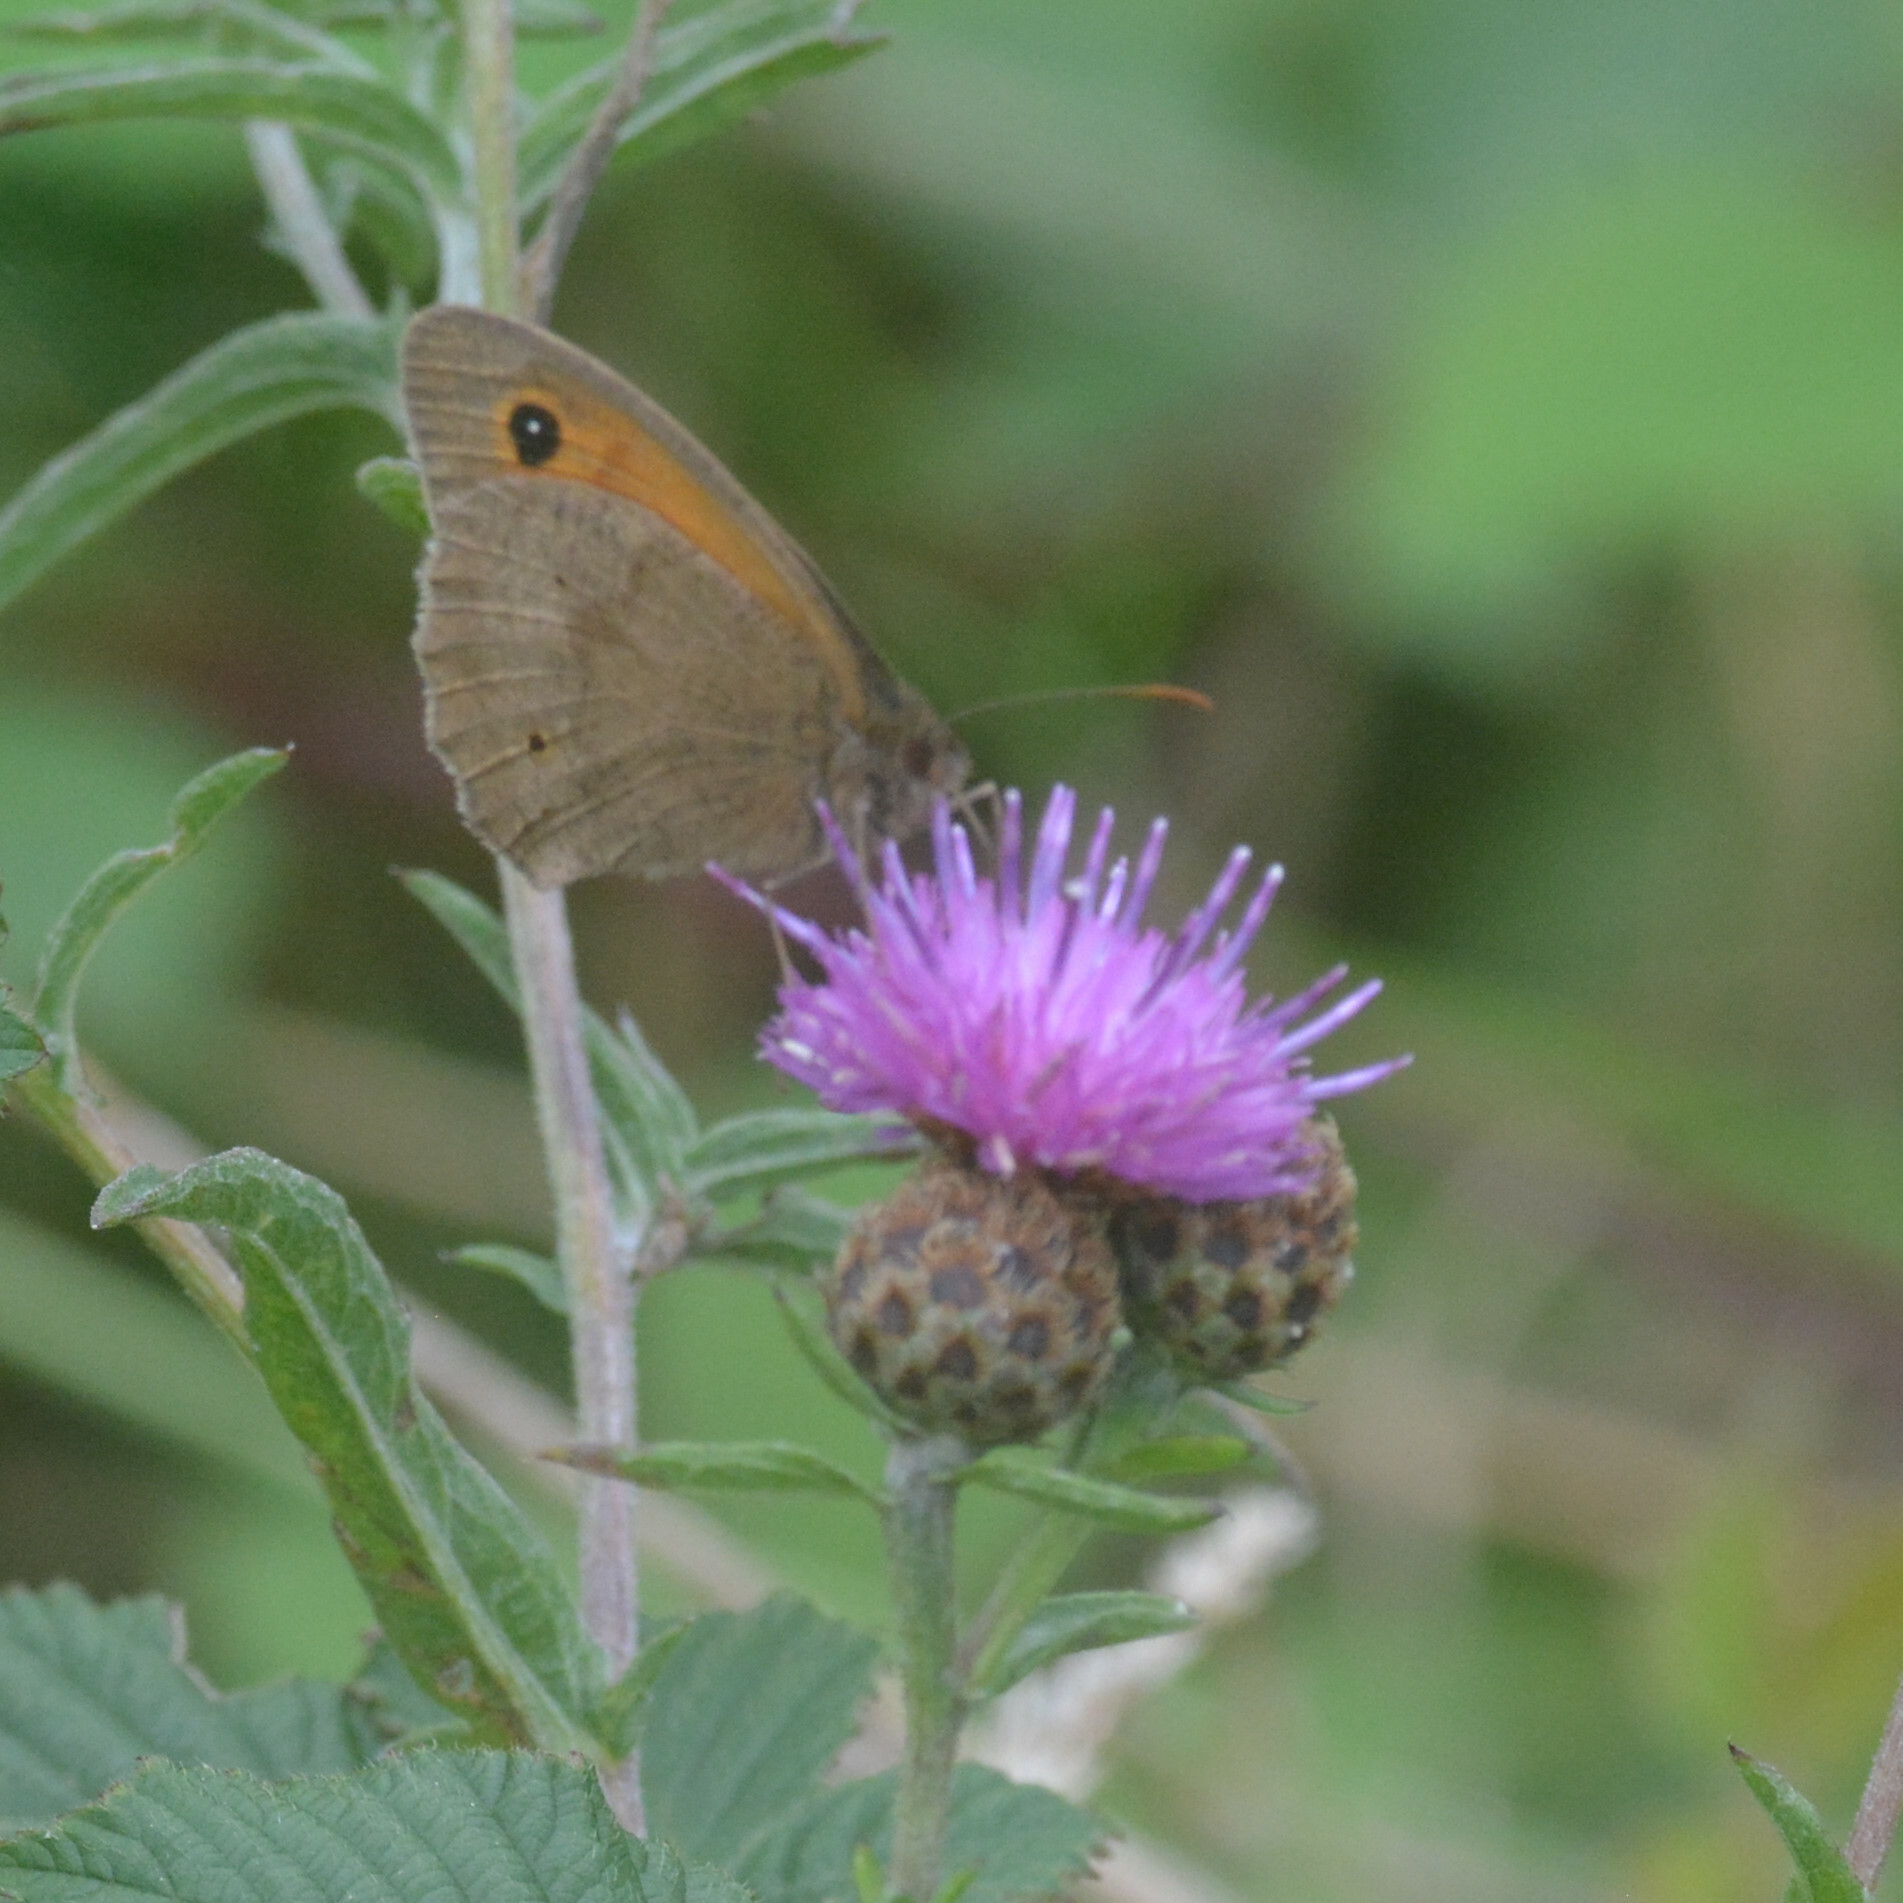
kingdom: Animalia
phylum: Arthropoda
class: Insecta
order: Lepidoptera
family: Nymphalidae
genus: Maniola
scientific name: Maniola jurtina
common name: Meadow brown
